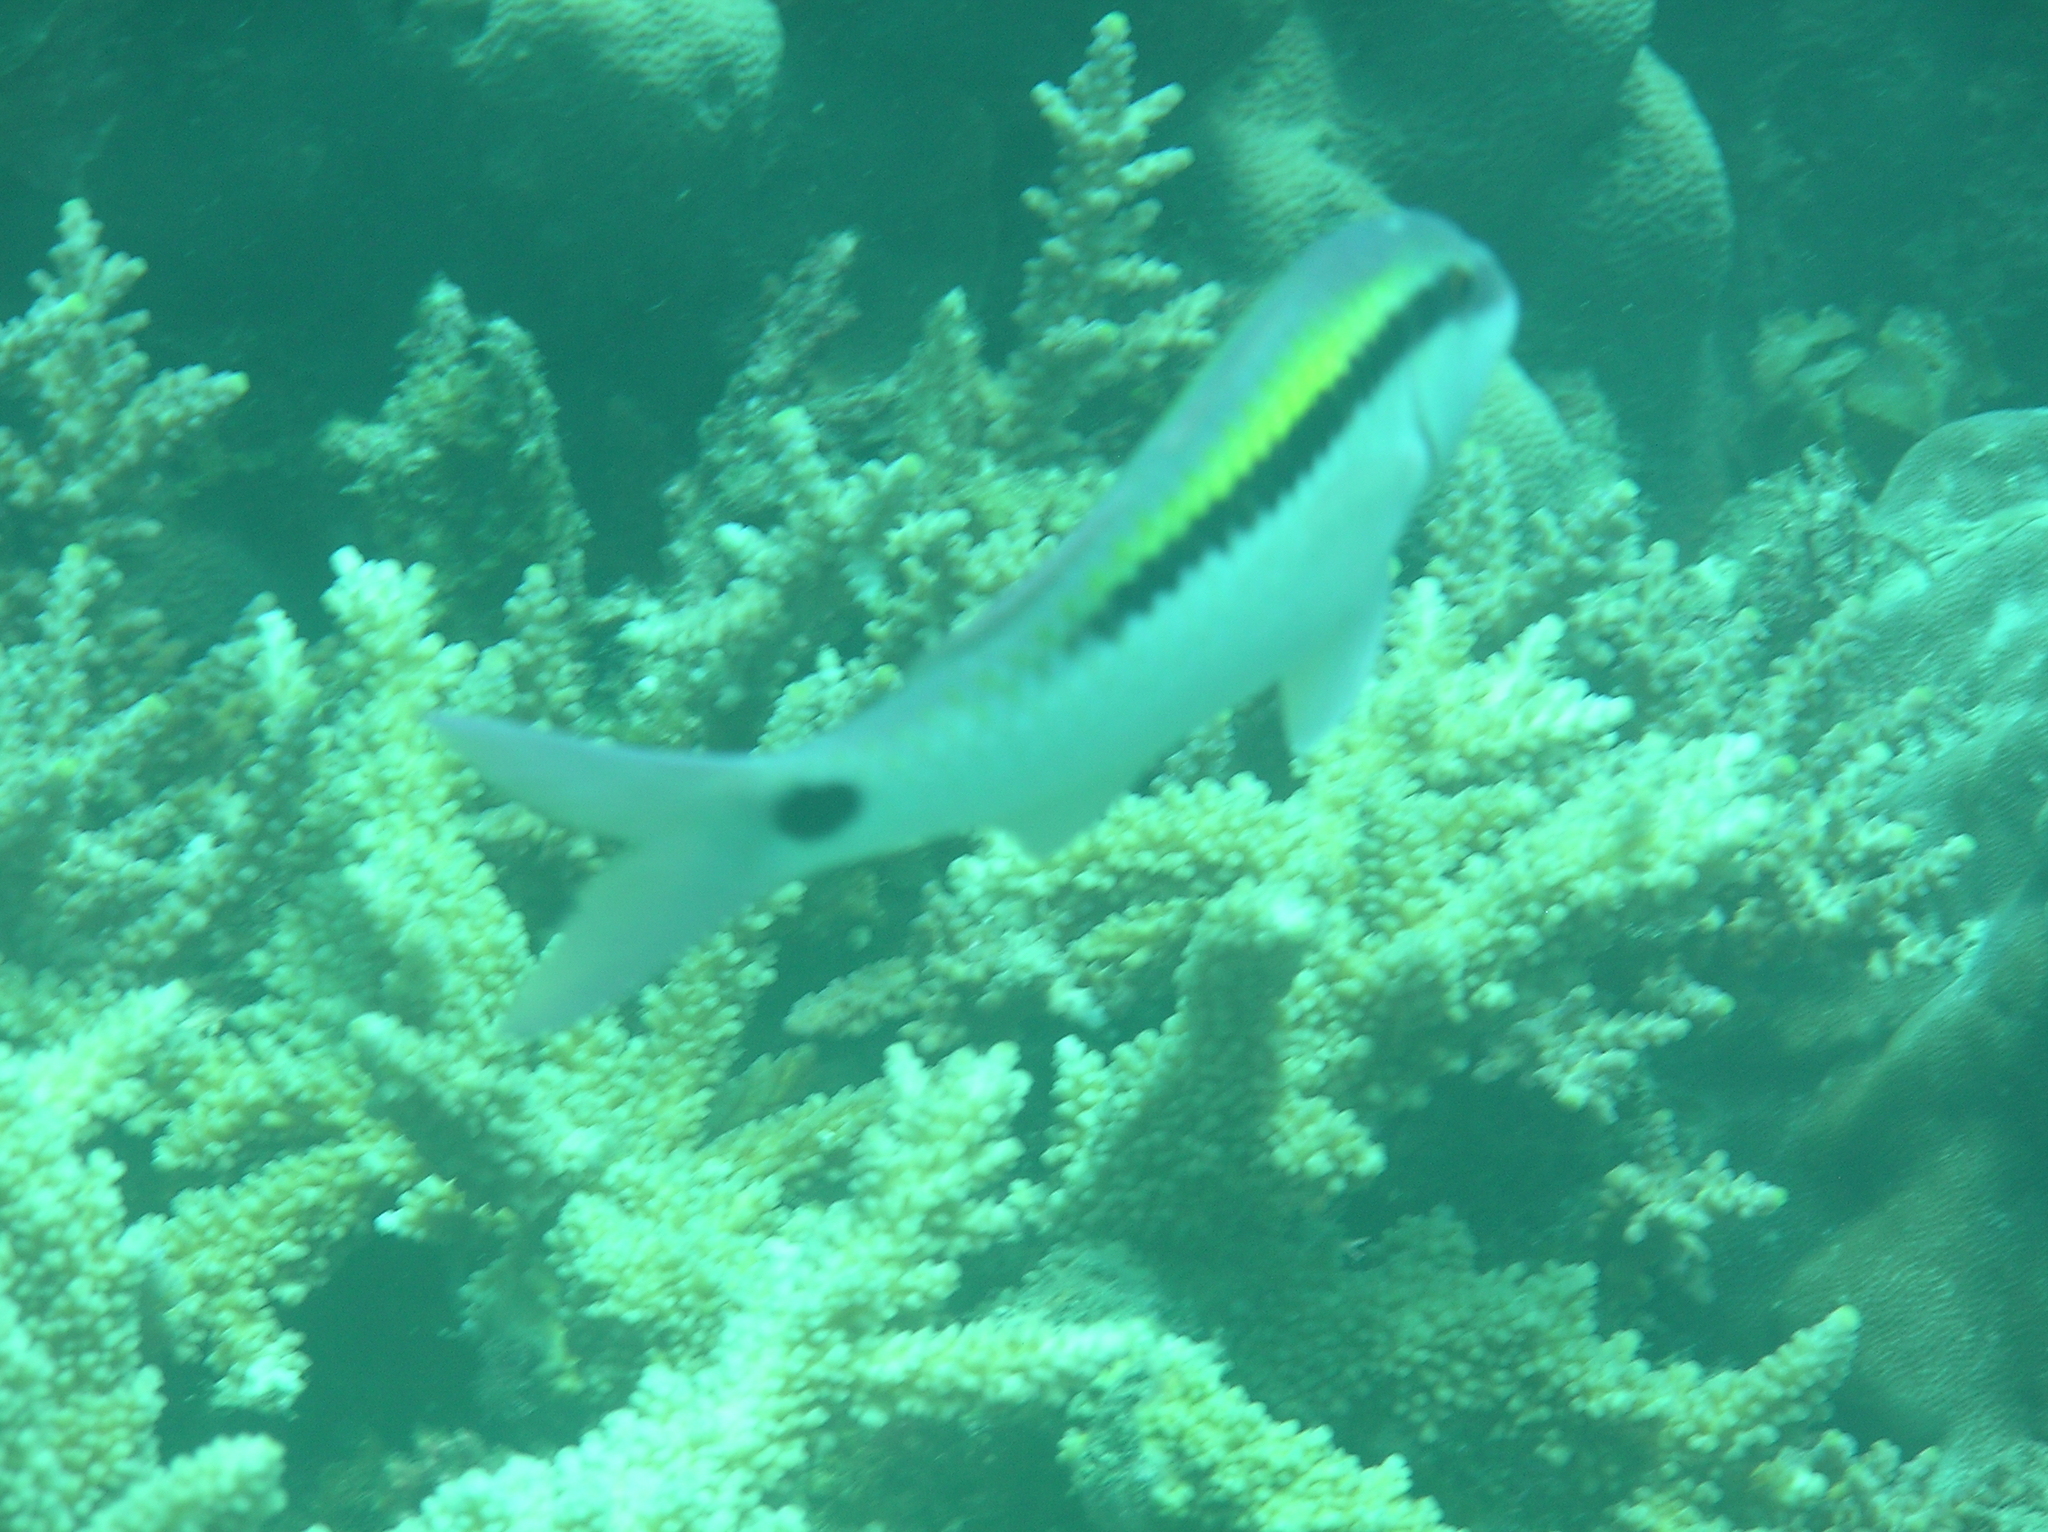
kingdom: Animalia
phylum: Chordata
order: Perciformes
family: Mullidae
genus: Parupeneus
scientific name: Parupeneus barberinus
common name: Dash-and-dot goatfish
